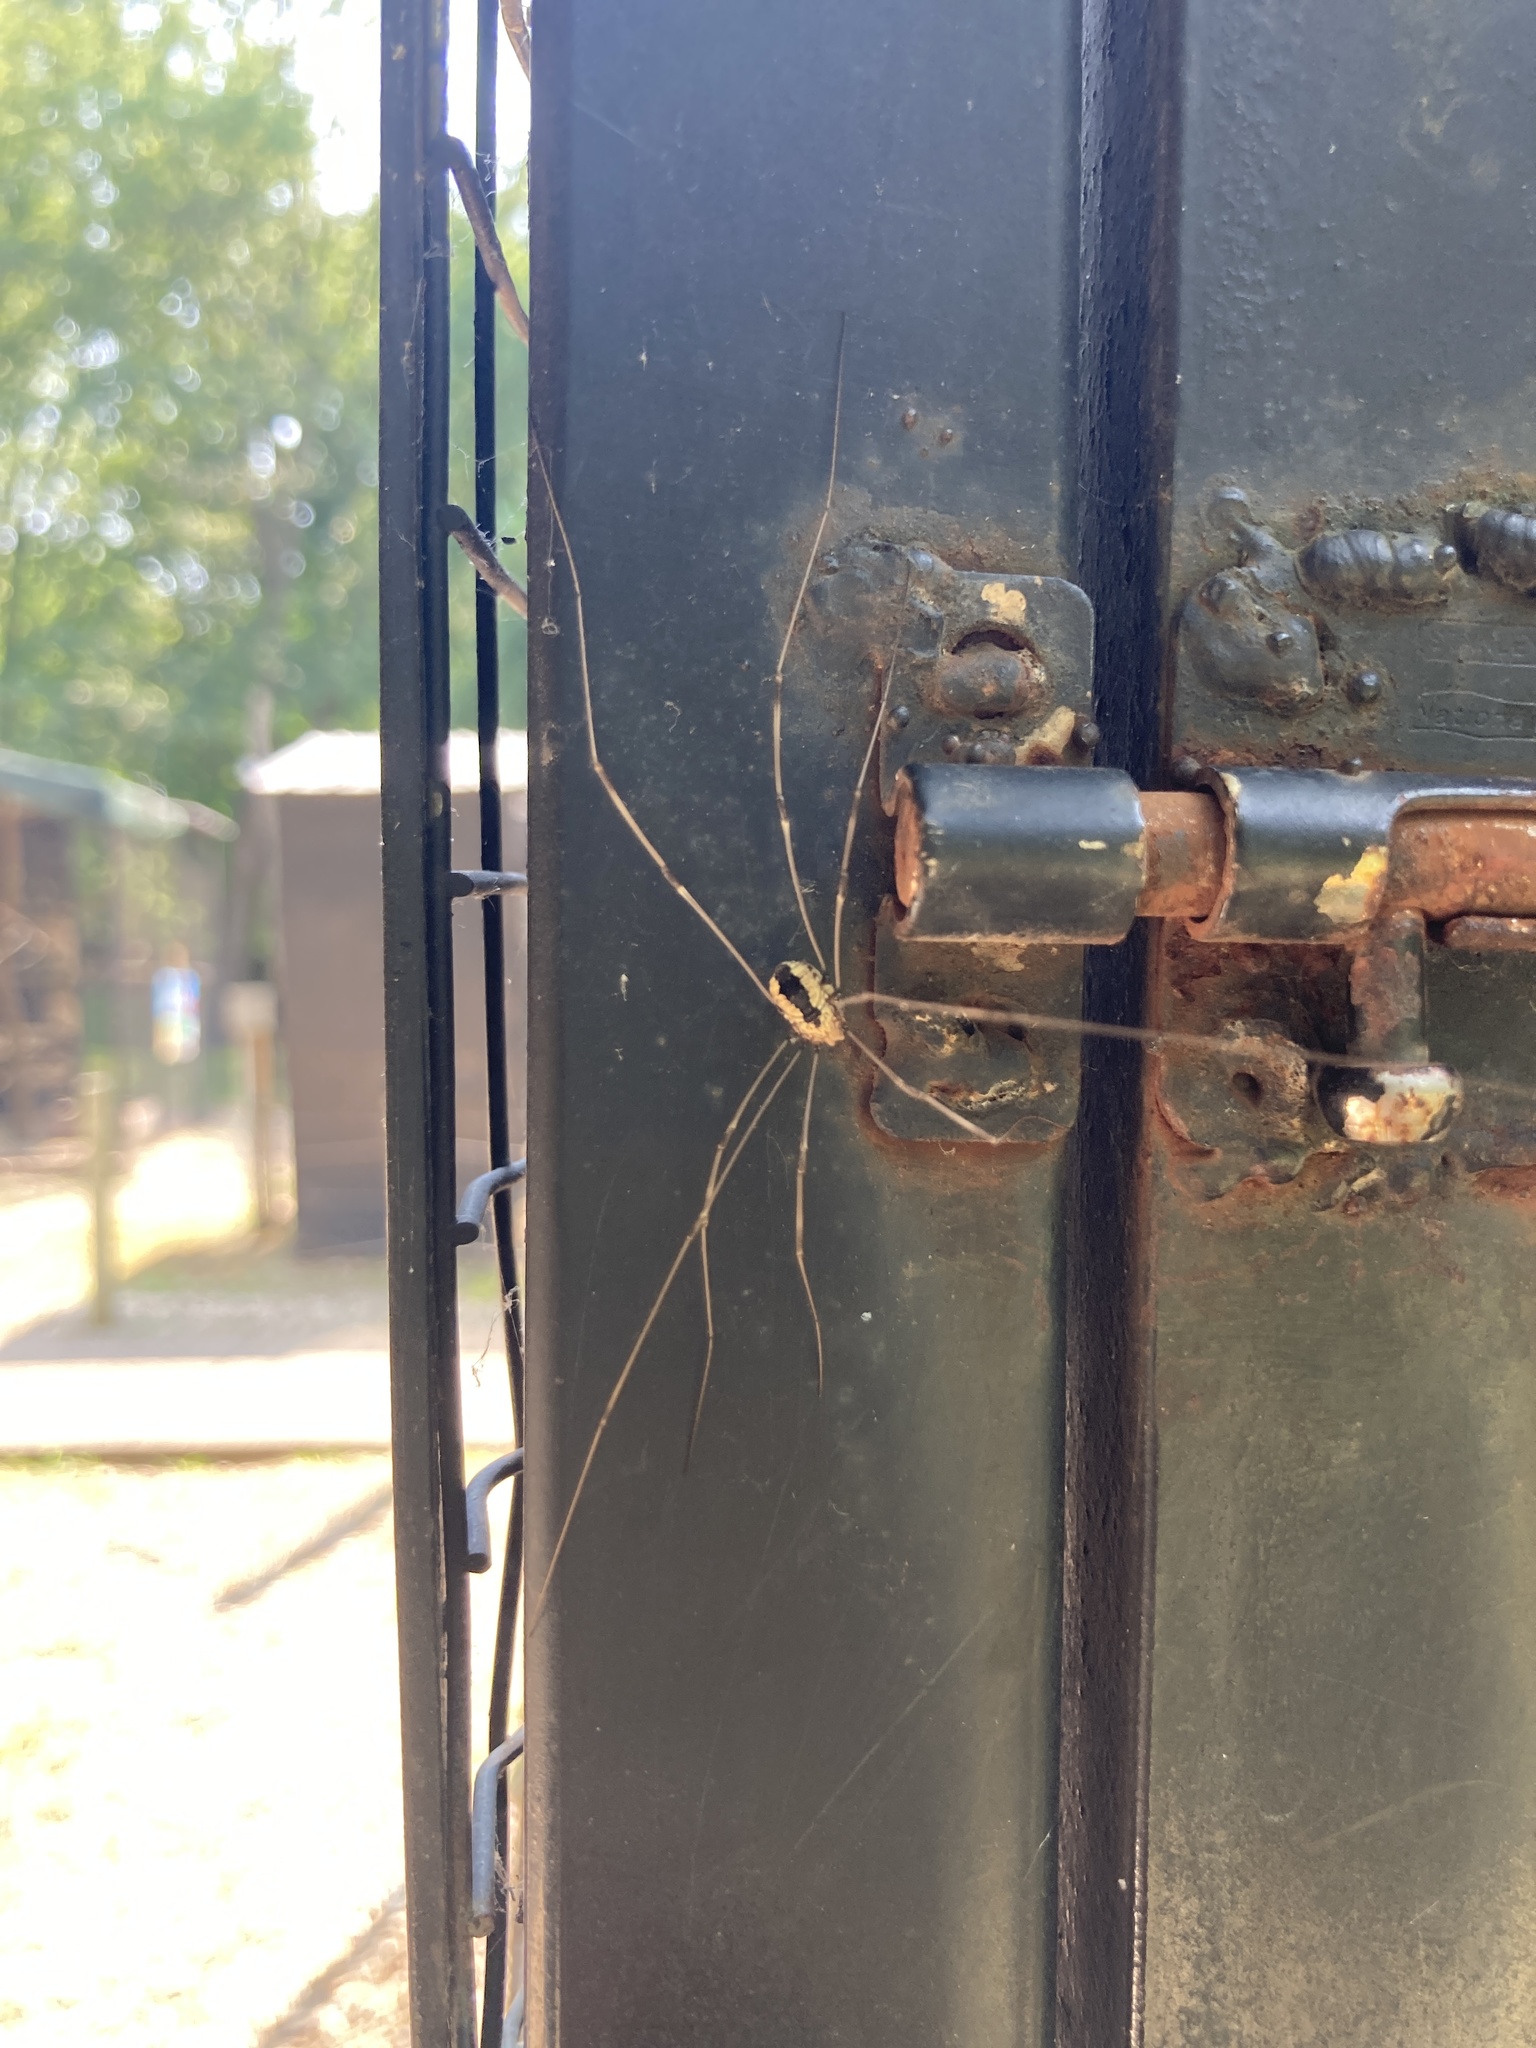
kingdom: Animalia
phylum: Arthropoda
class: Arachnida
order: Opiliones
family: Sclerosomatidae
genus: Leiobunum
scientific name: Leiobunum vittatum
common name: Eastern harvestman
